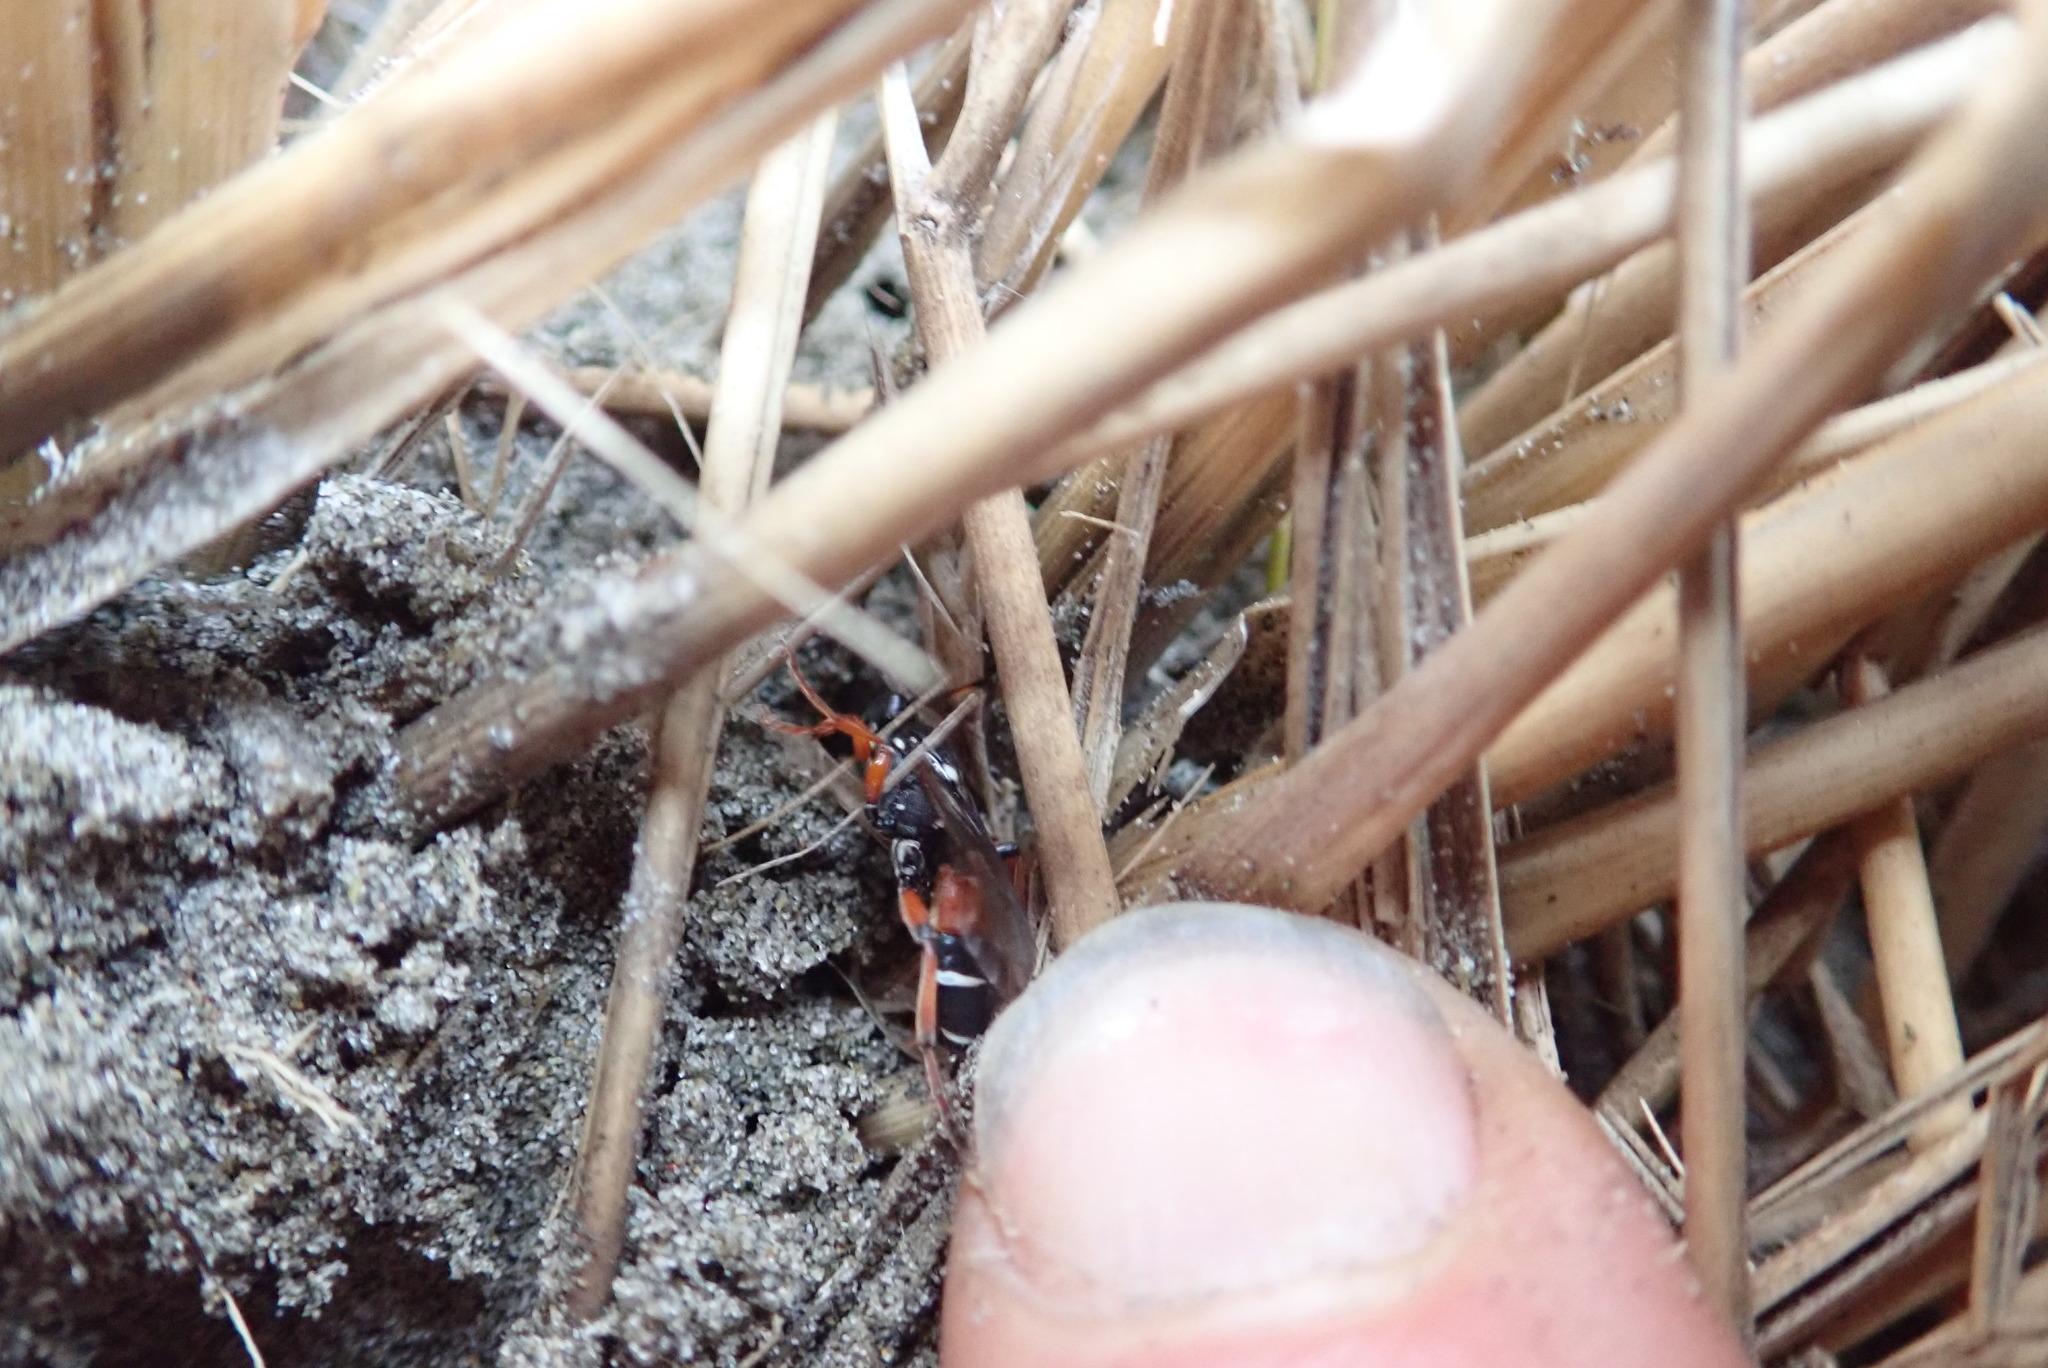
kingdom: Animalia
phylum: Arthropoda
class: Insecta
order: Hymenoptera
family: Ichneumonidae
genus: Ichneumon
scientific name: Ichneumon promissorius
